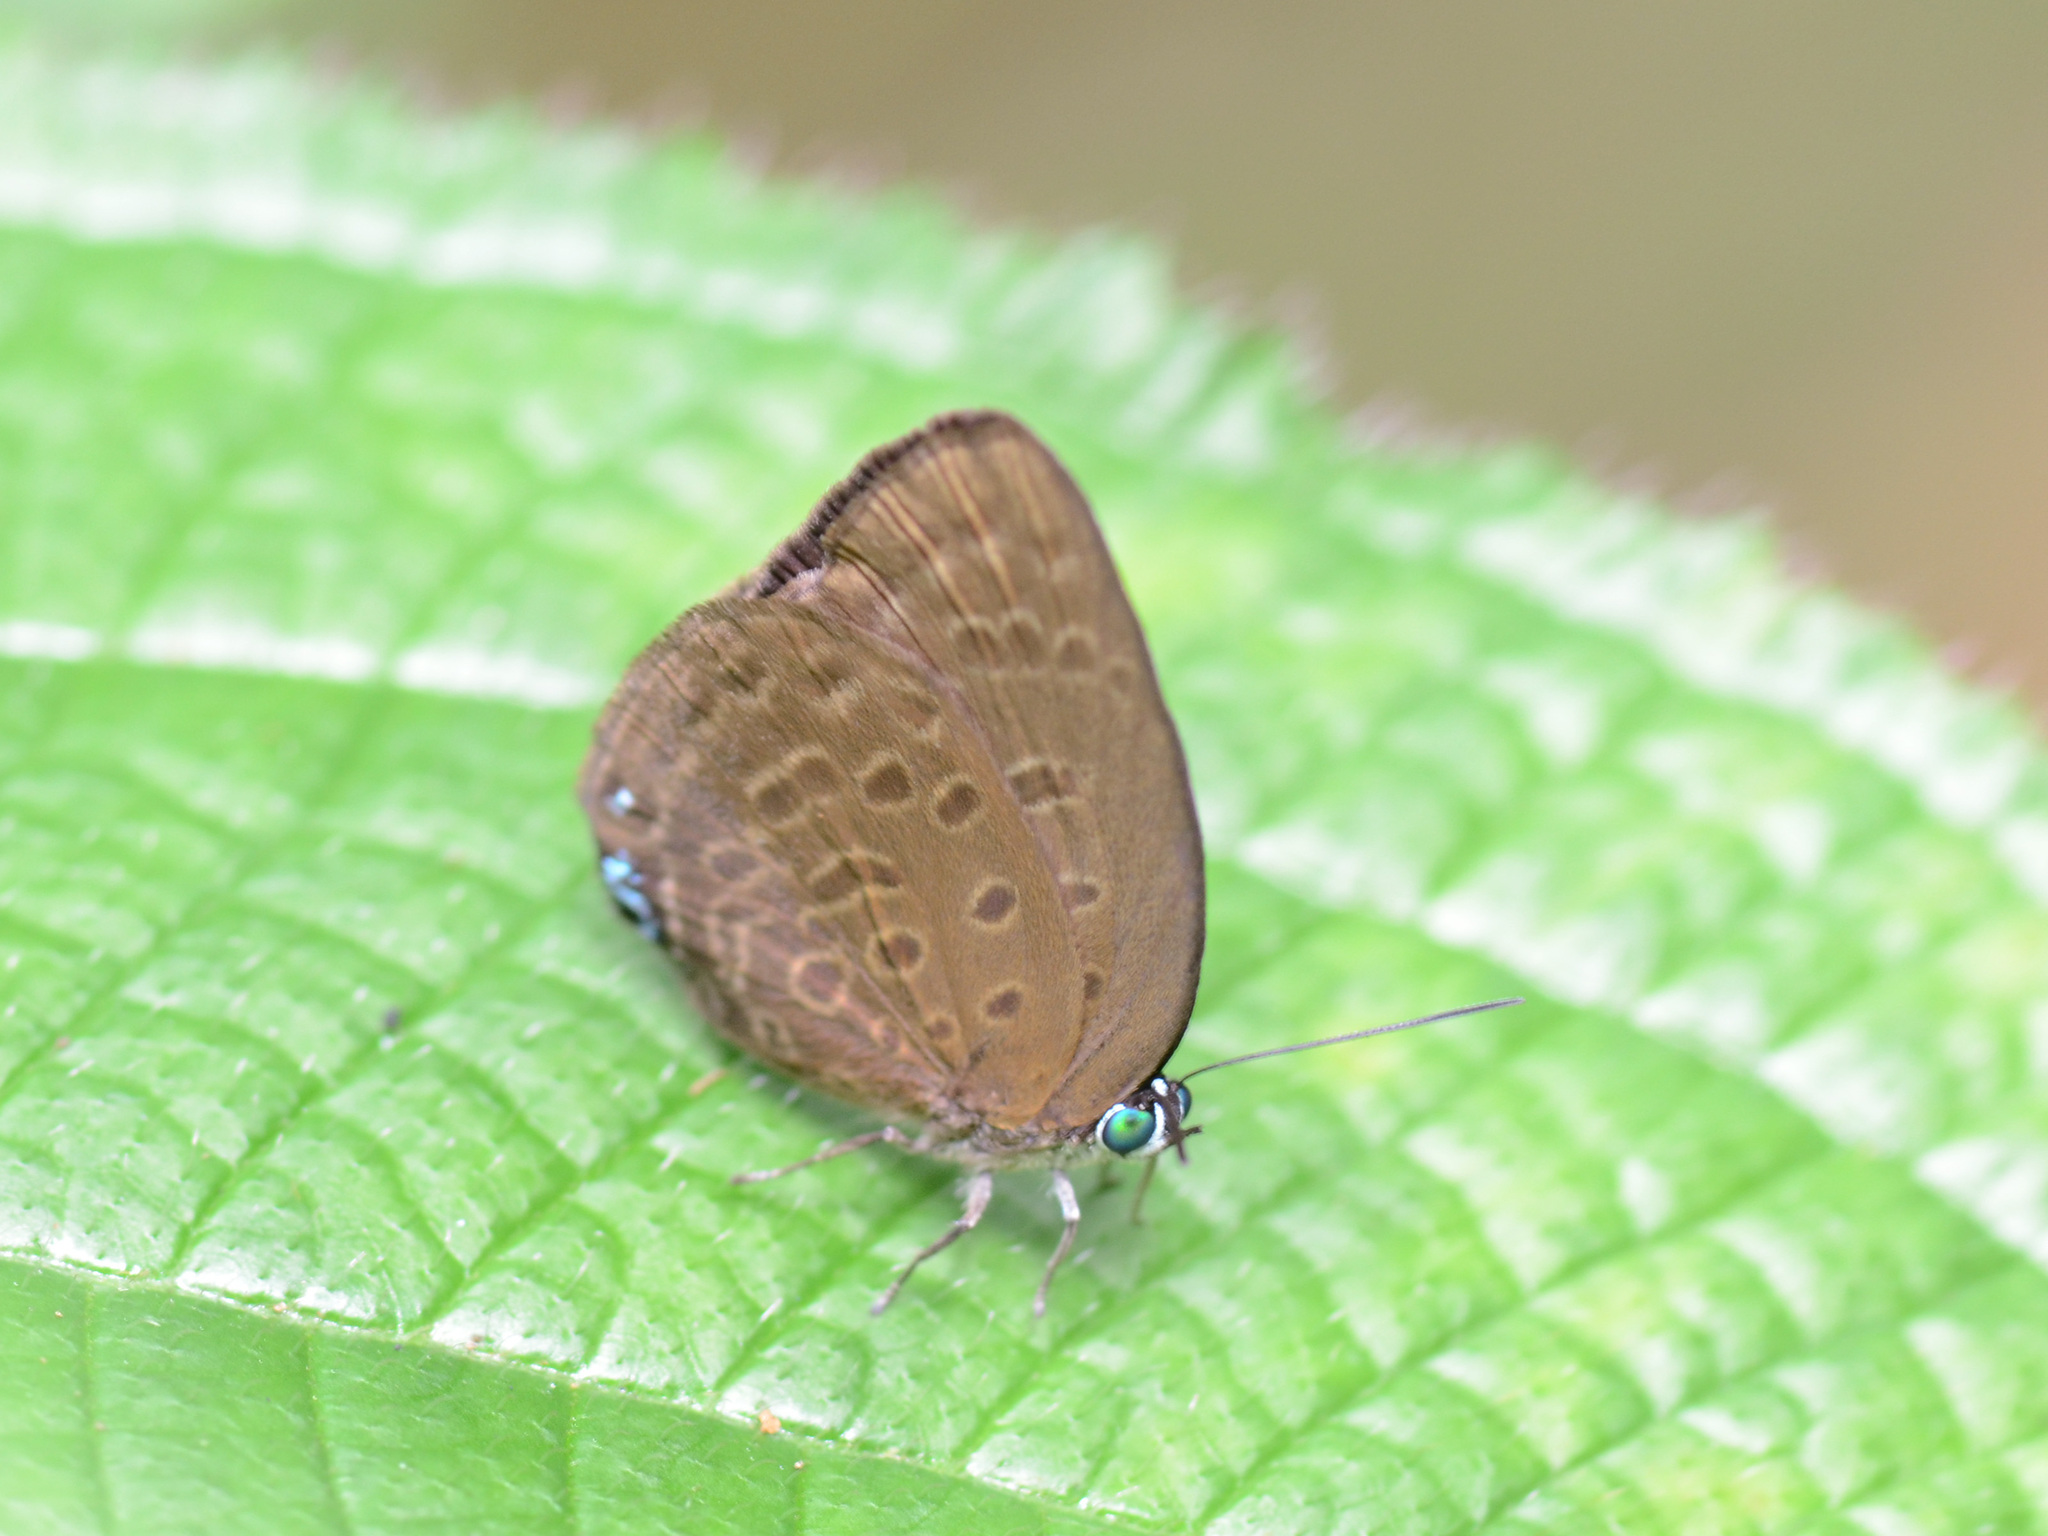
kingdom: Animalia
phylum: Arthropoda
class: Insecta
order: Lepidoptera
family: Lycaenidae
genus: Arhopala
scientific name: Arhopala major
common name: Major yellow oakblue
